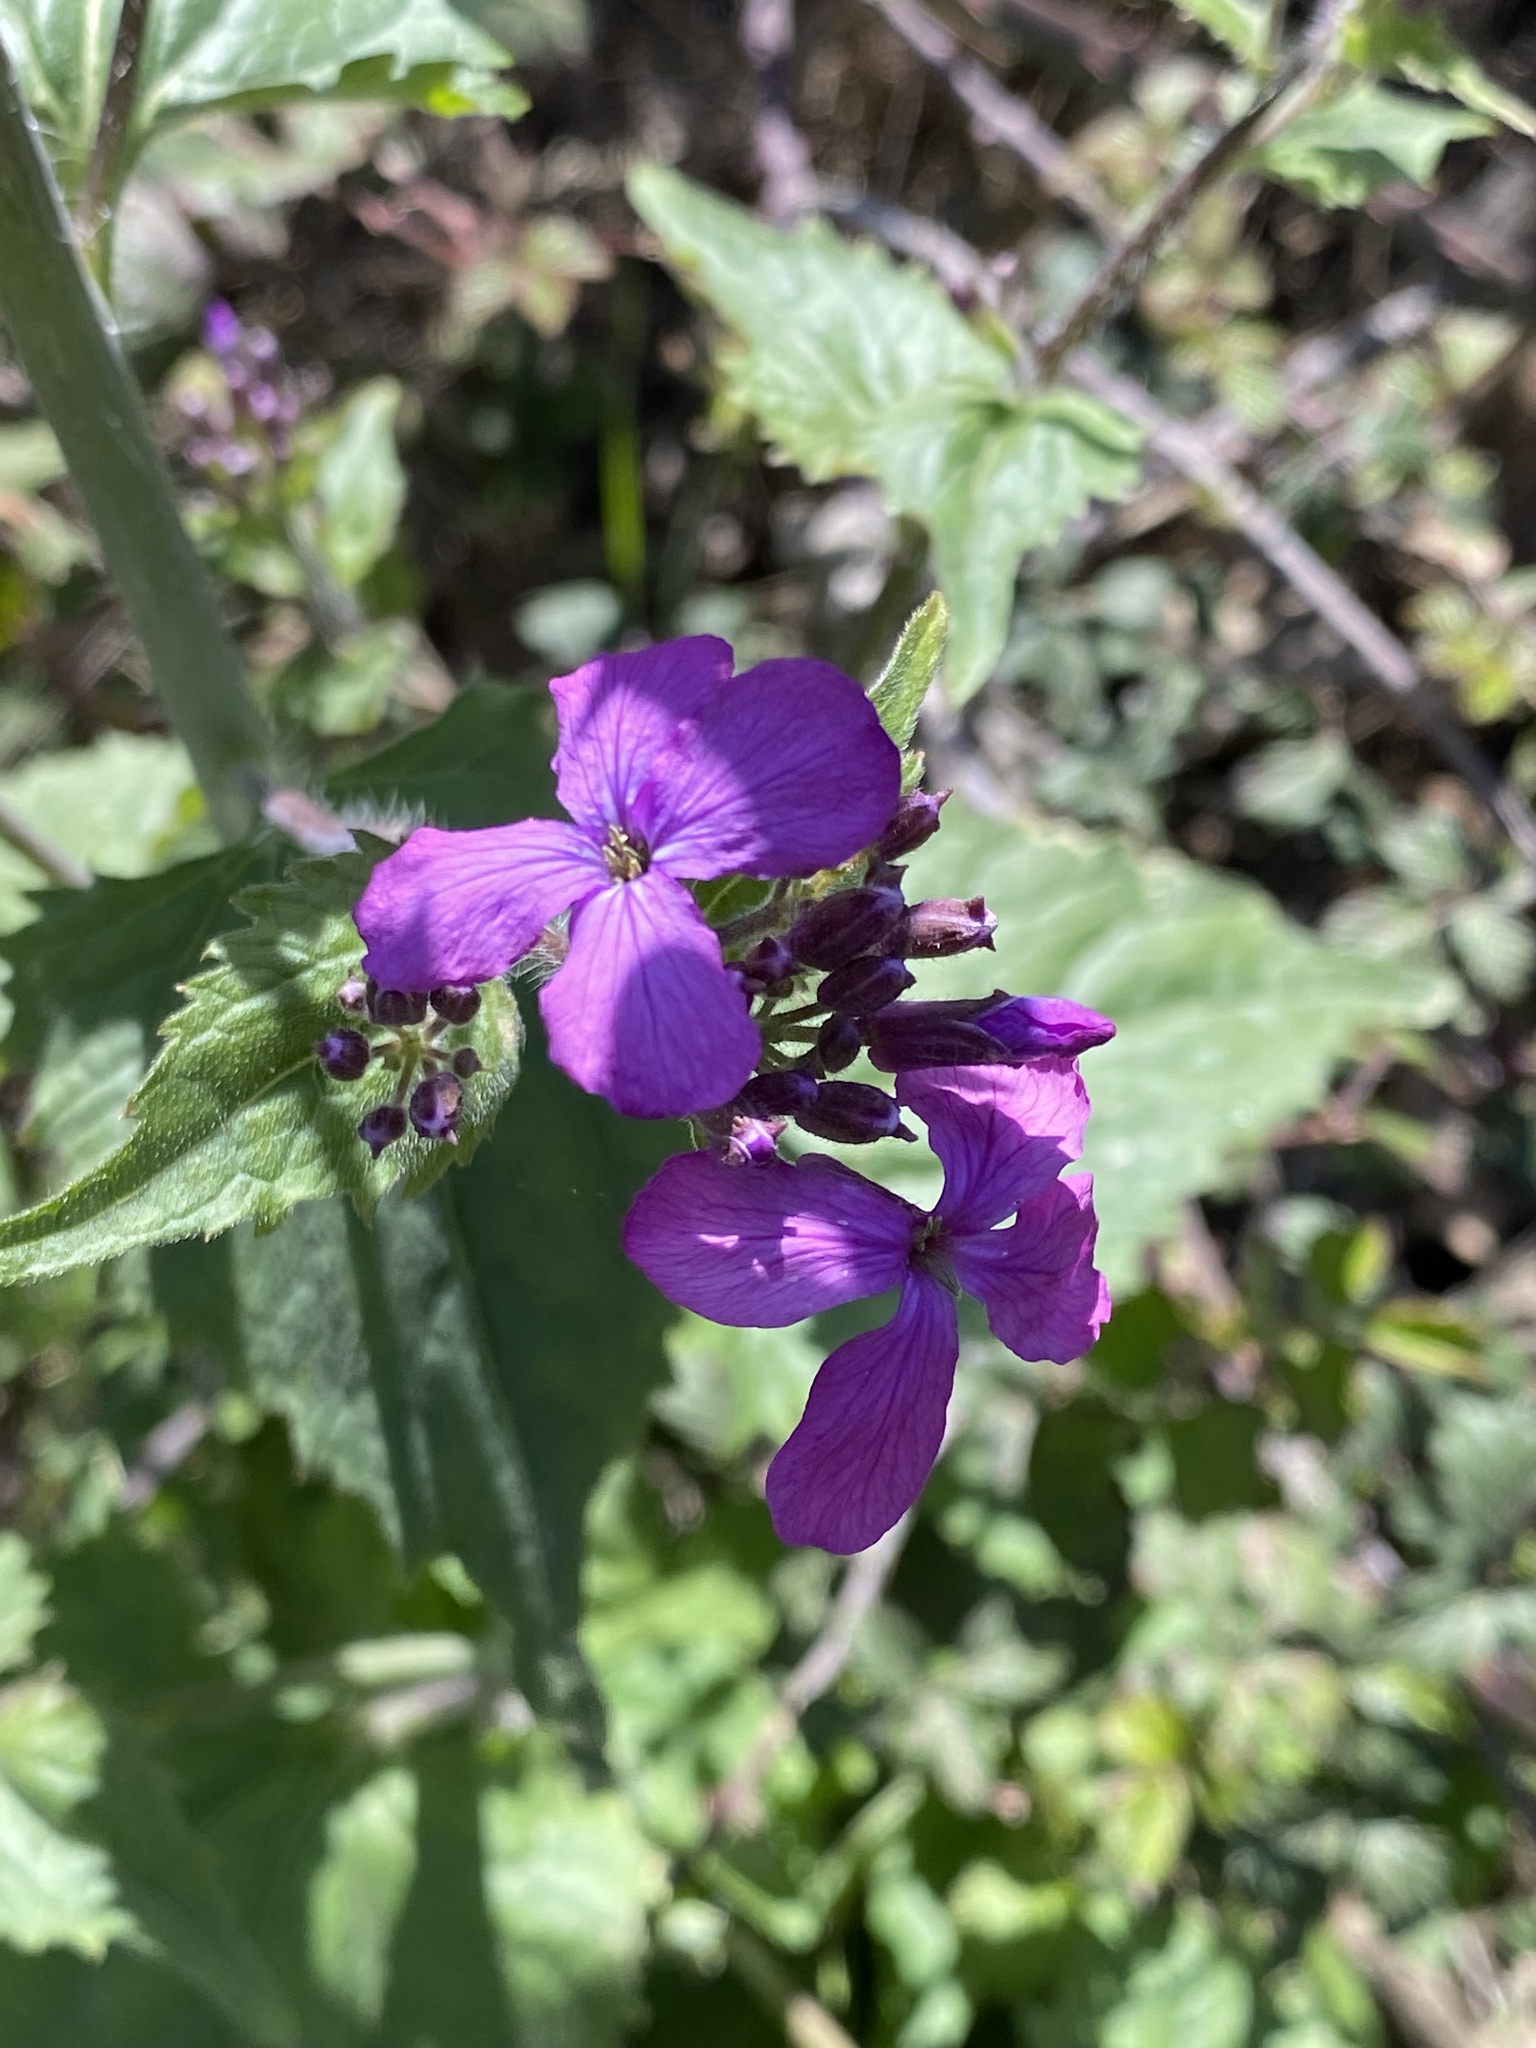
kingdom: Plantae
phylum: Tracheophyta
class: Magnoliopsida
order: Brassicales
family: Brassicaceae
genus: Lunaria
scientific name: Lunaria annua
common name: Honesty
